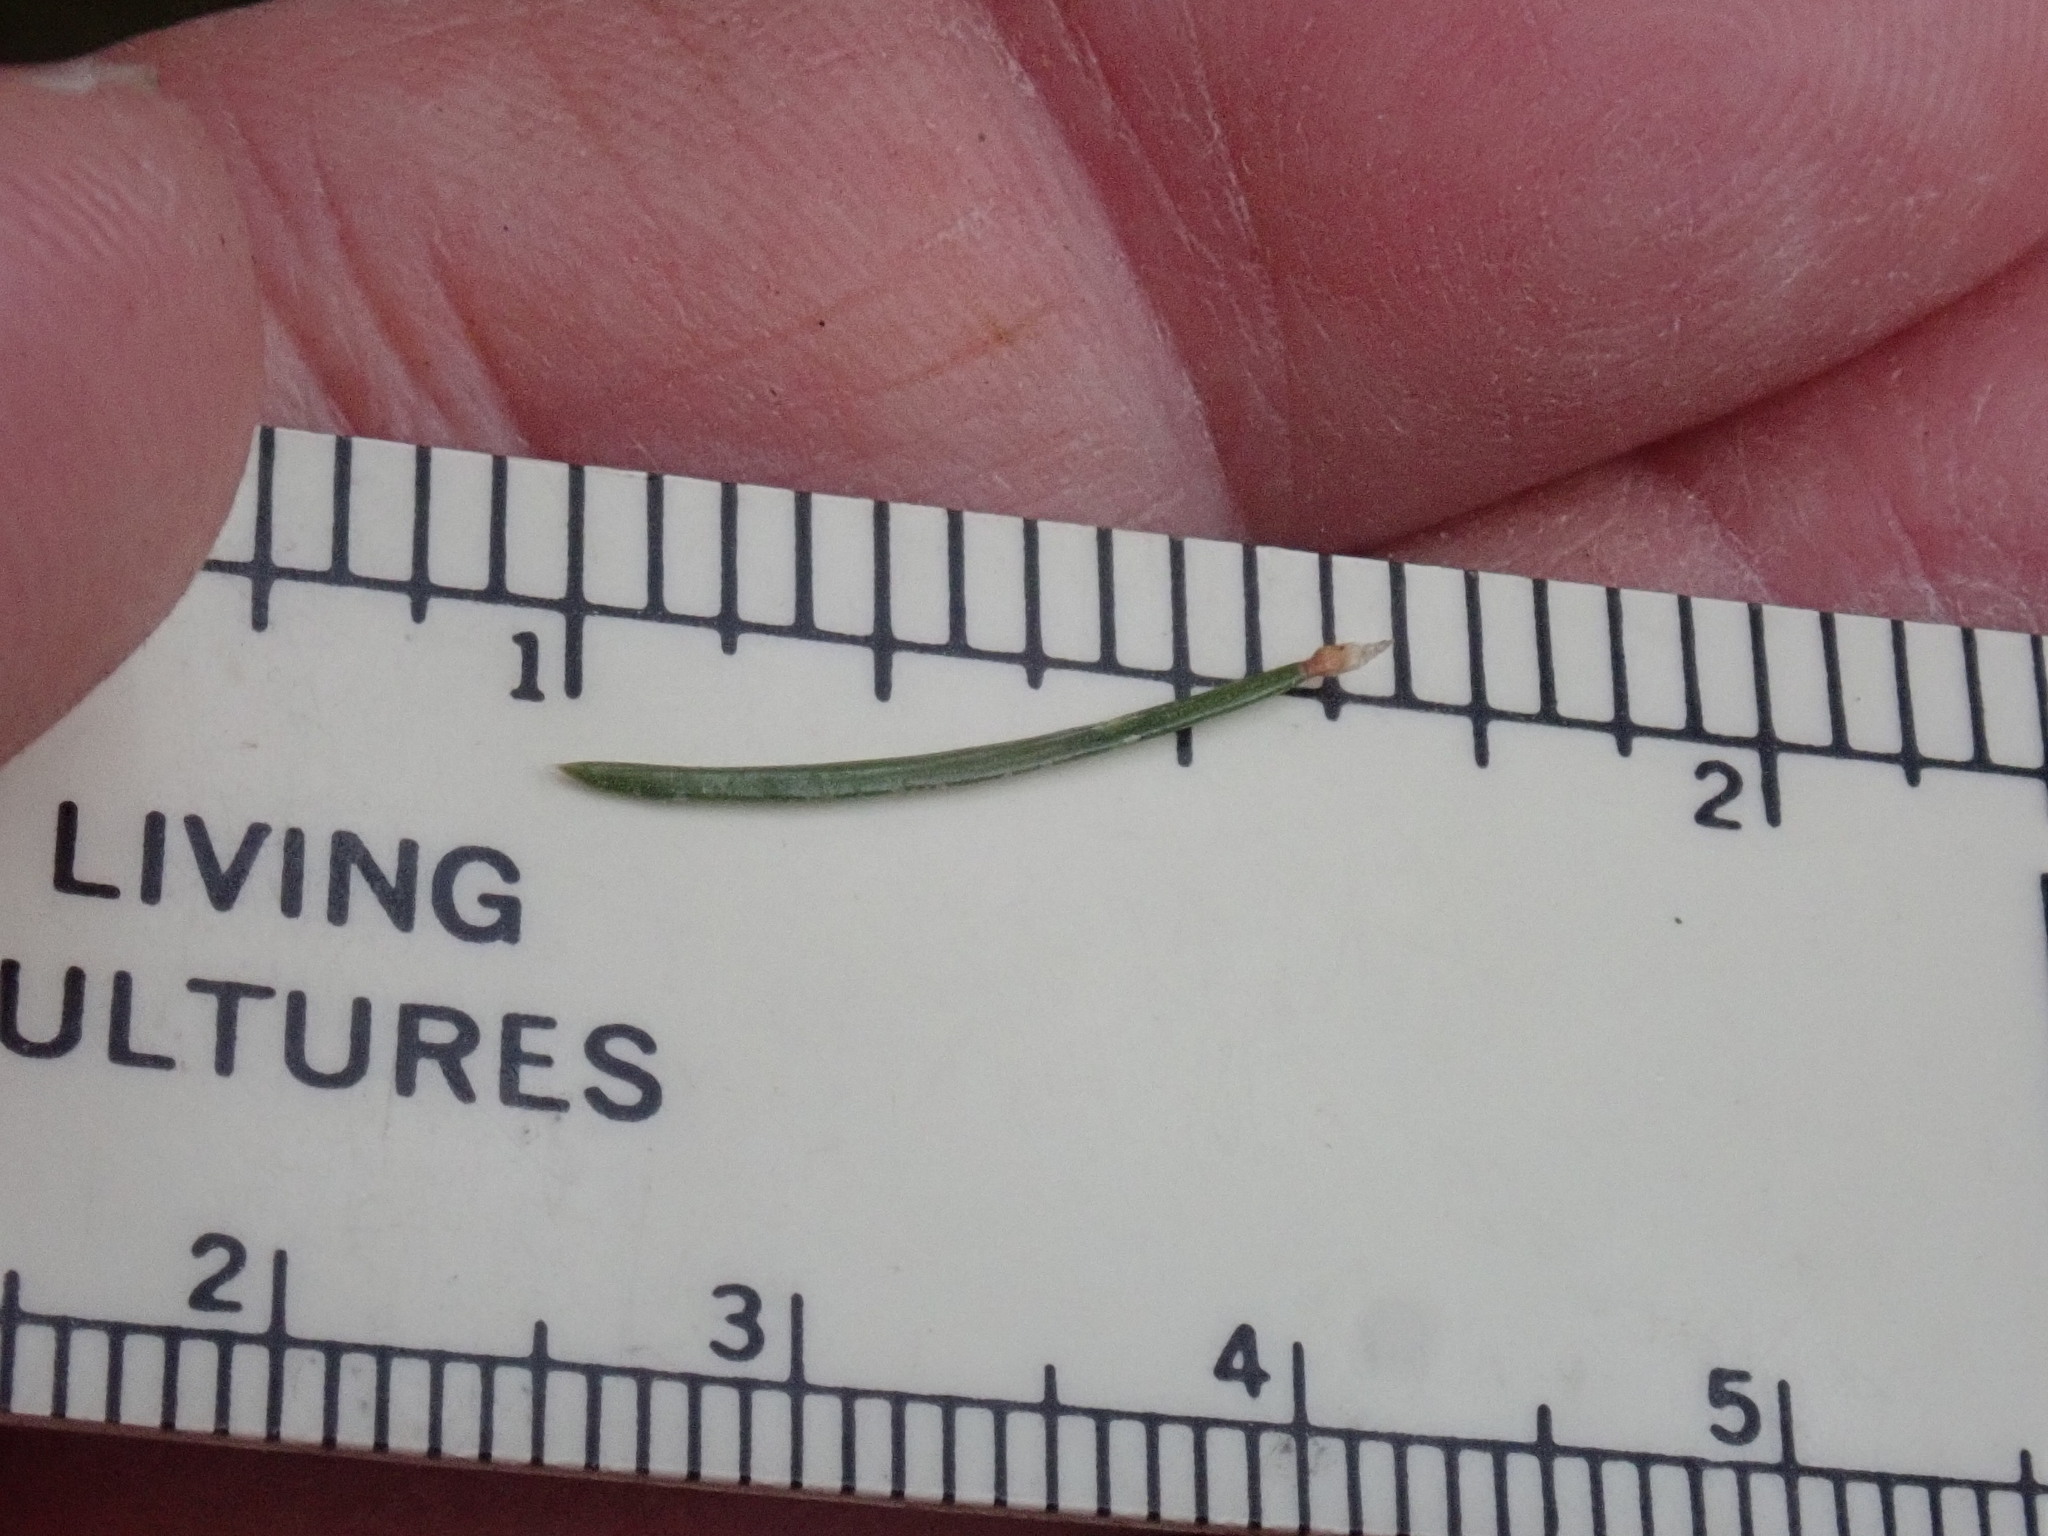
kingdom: Plantae
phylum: Tracheophyta
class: Pinopsida
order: Pinales
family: Pinaceae
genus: Picea
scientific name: Picea abies
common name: Norway spruce
